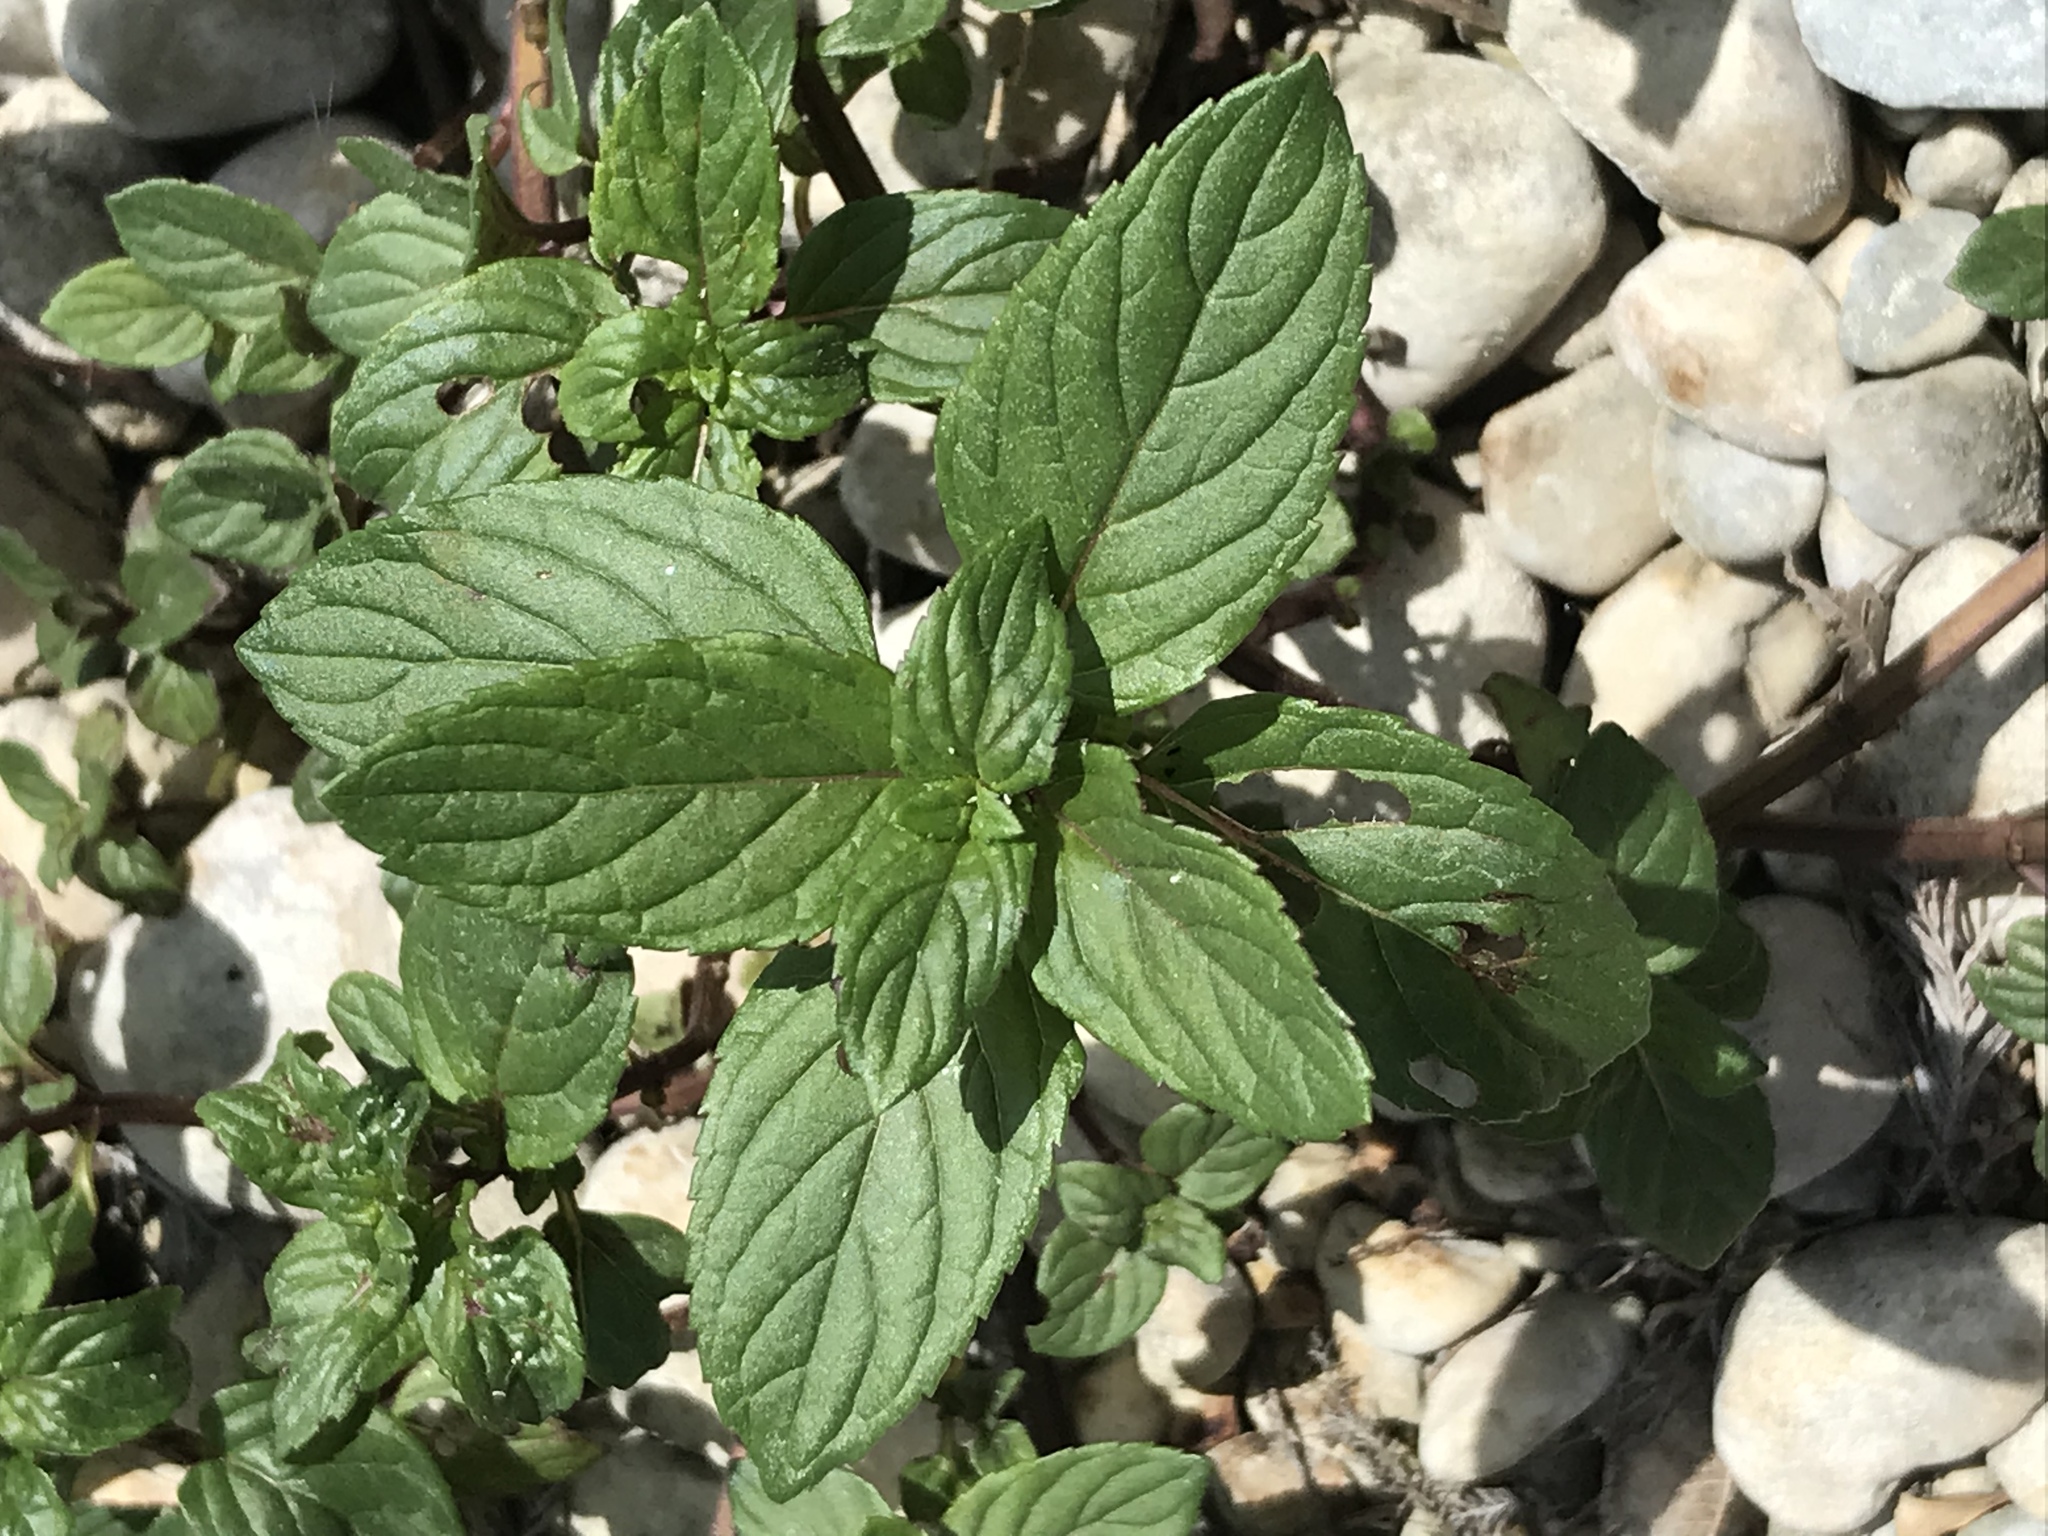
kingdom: Plantae
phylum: Tracheophyta
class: Magnoliopsida
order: Lamiales
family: Lamiaceae
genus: Mentha
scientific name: Mentha piperita
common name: Peppermint
